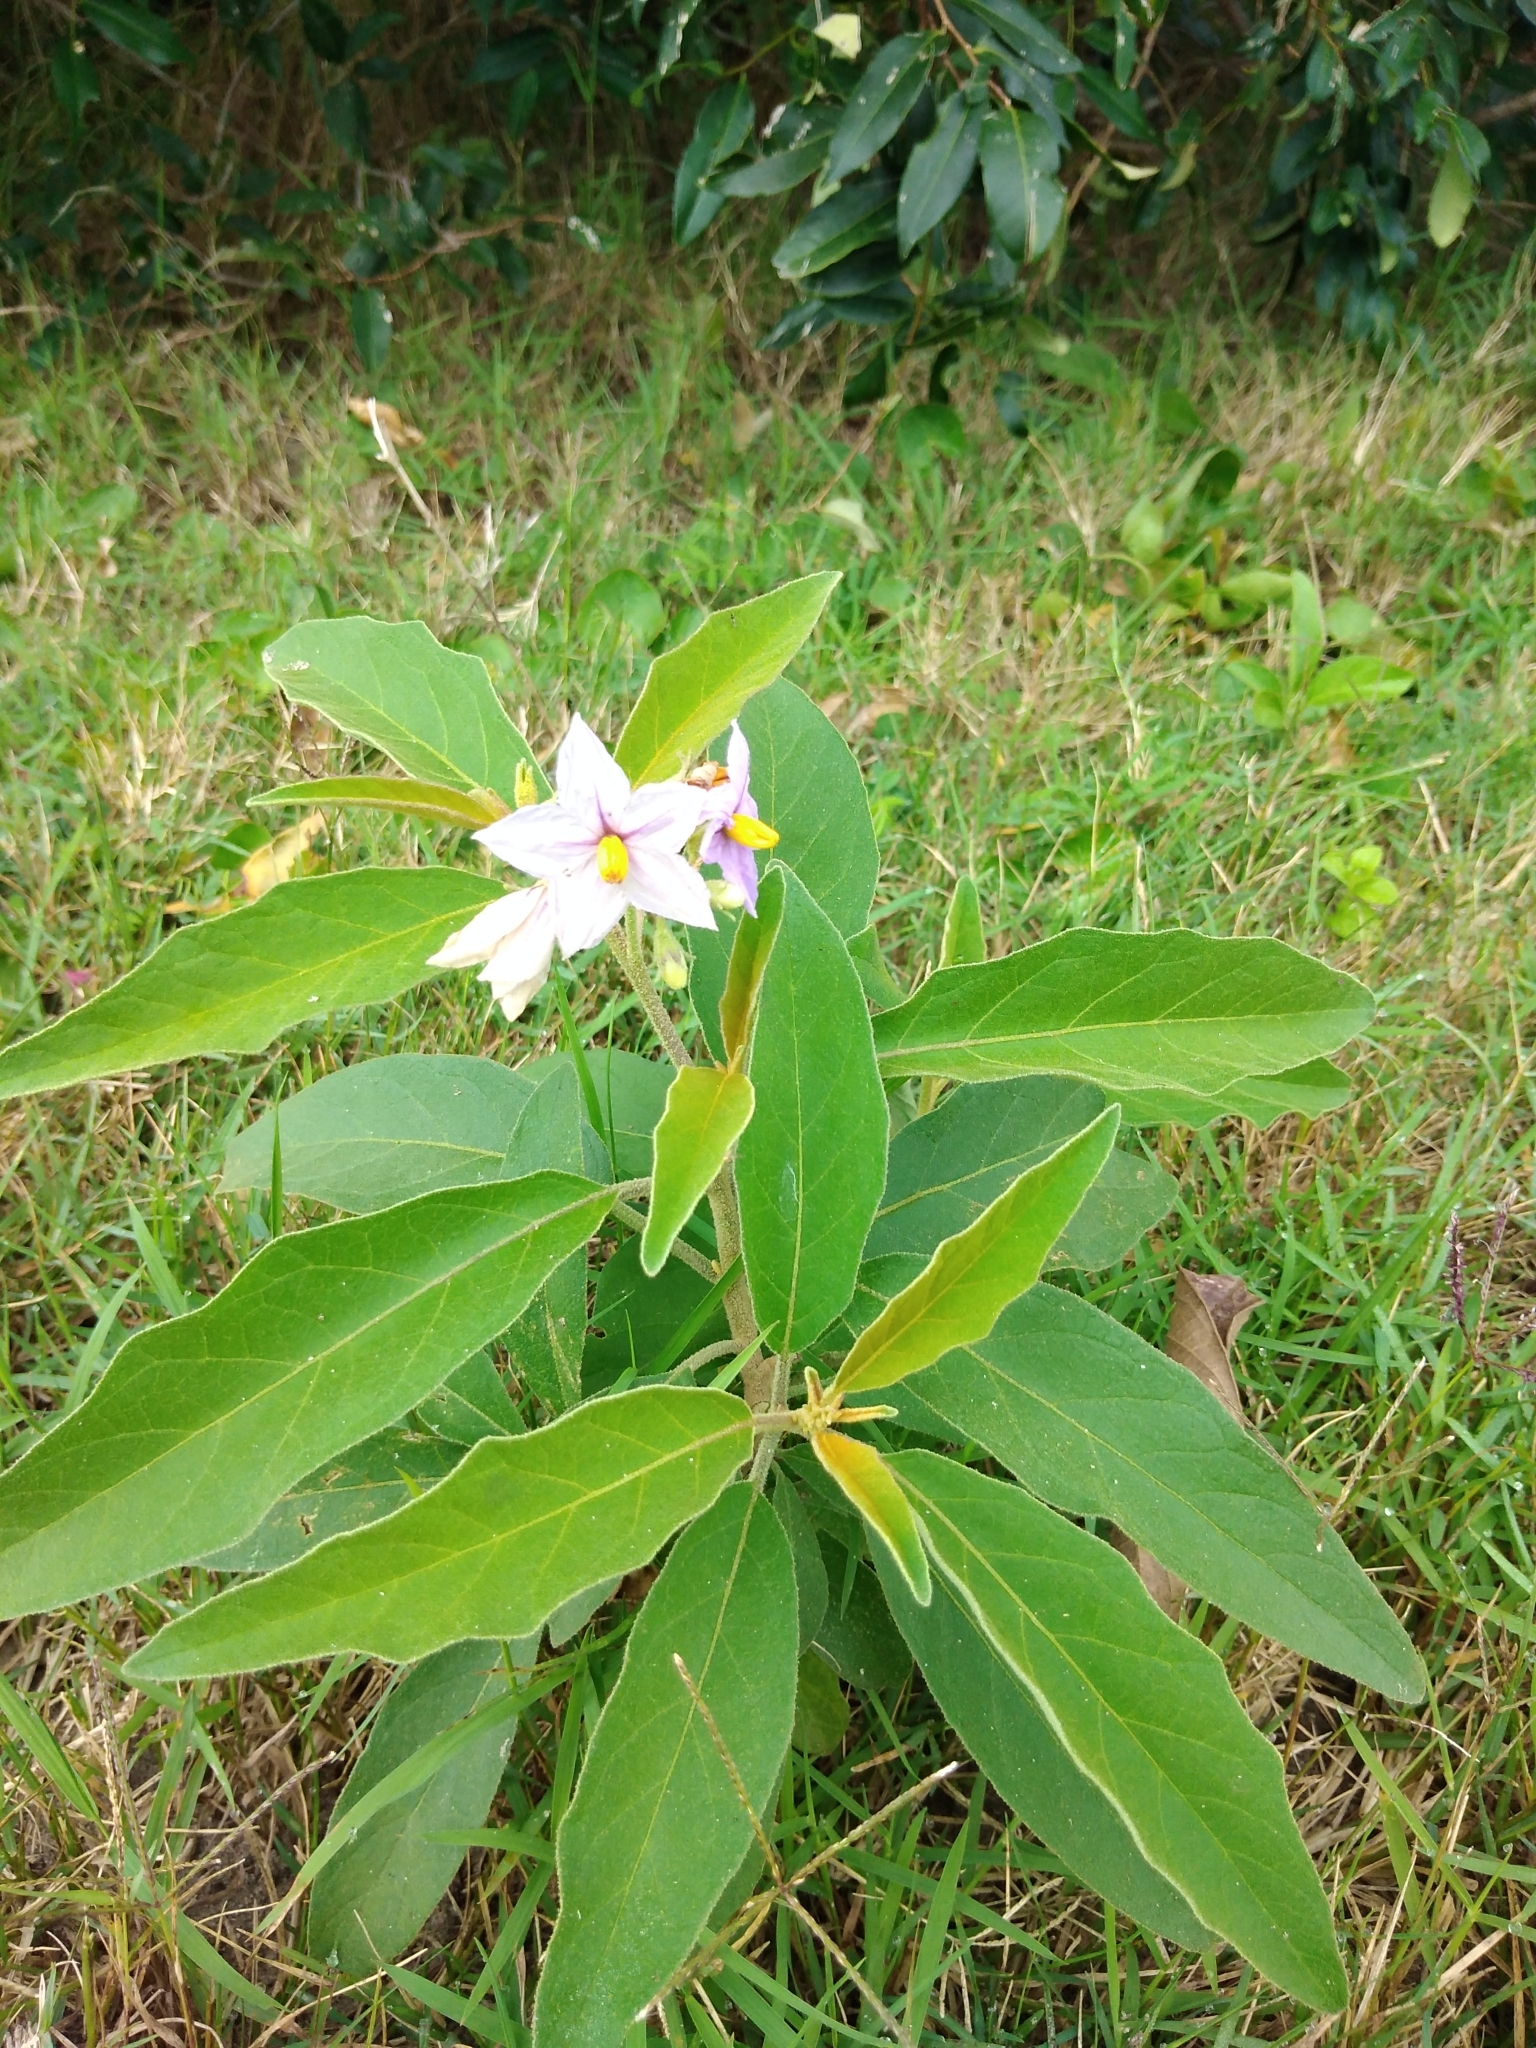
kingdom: Plantae
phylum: Tracheophyta
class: Magnoliopsida
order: Solanales
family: Solanaceae
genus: Solanum
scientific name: Solanum campylacanthum
